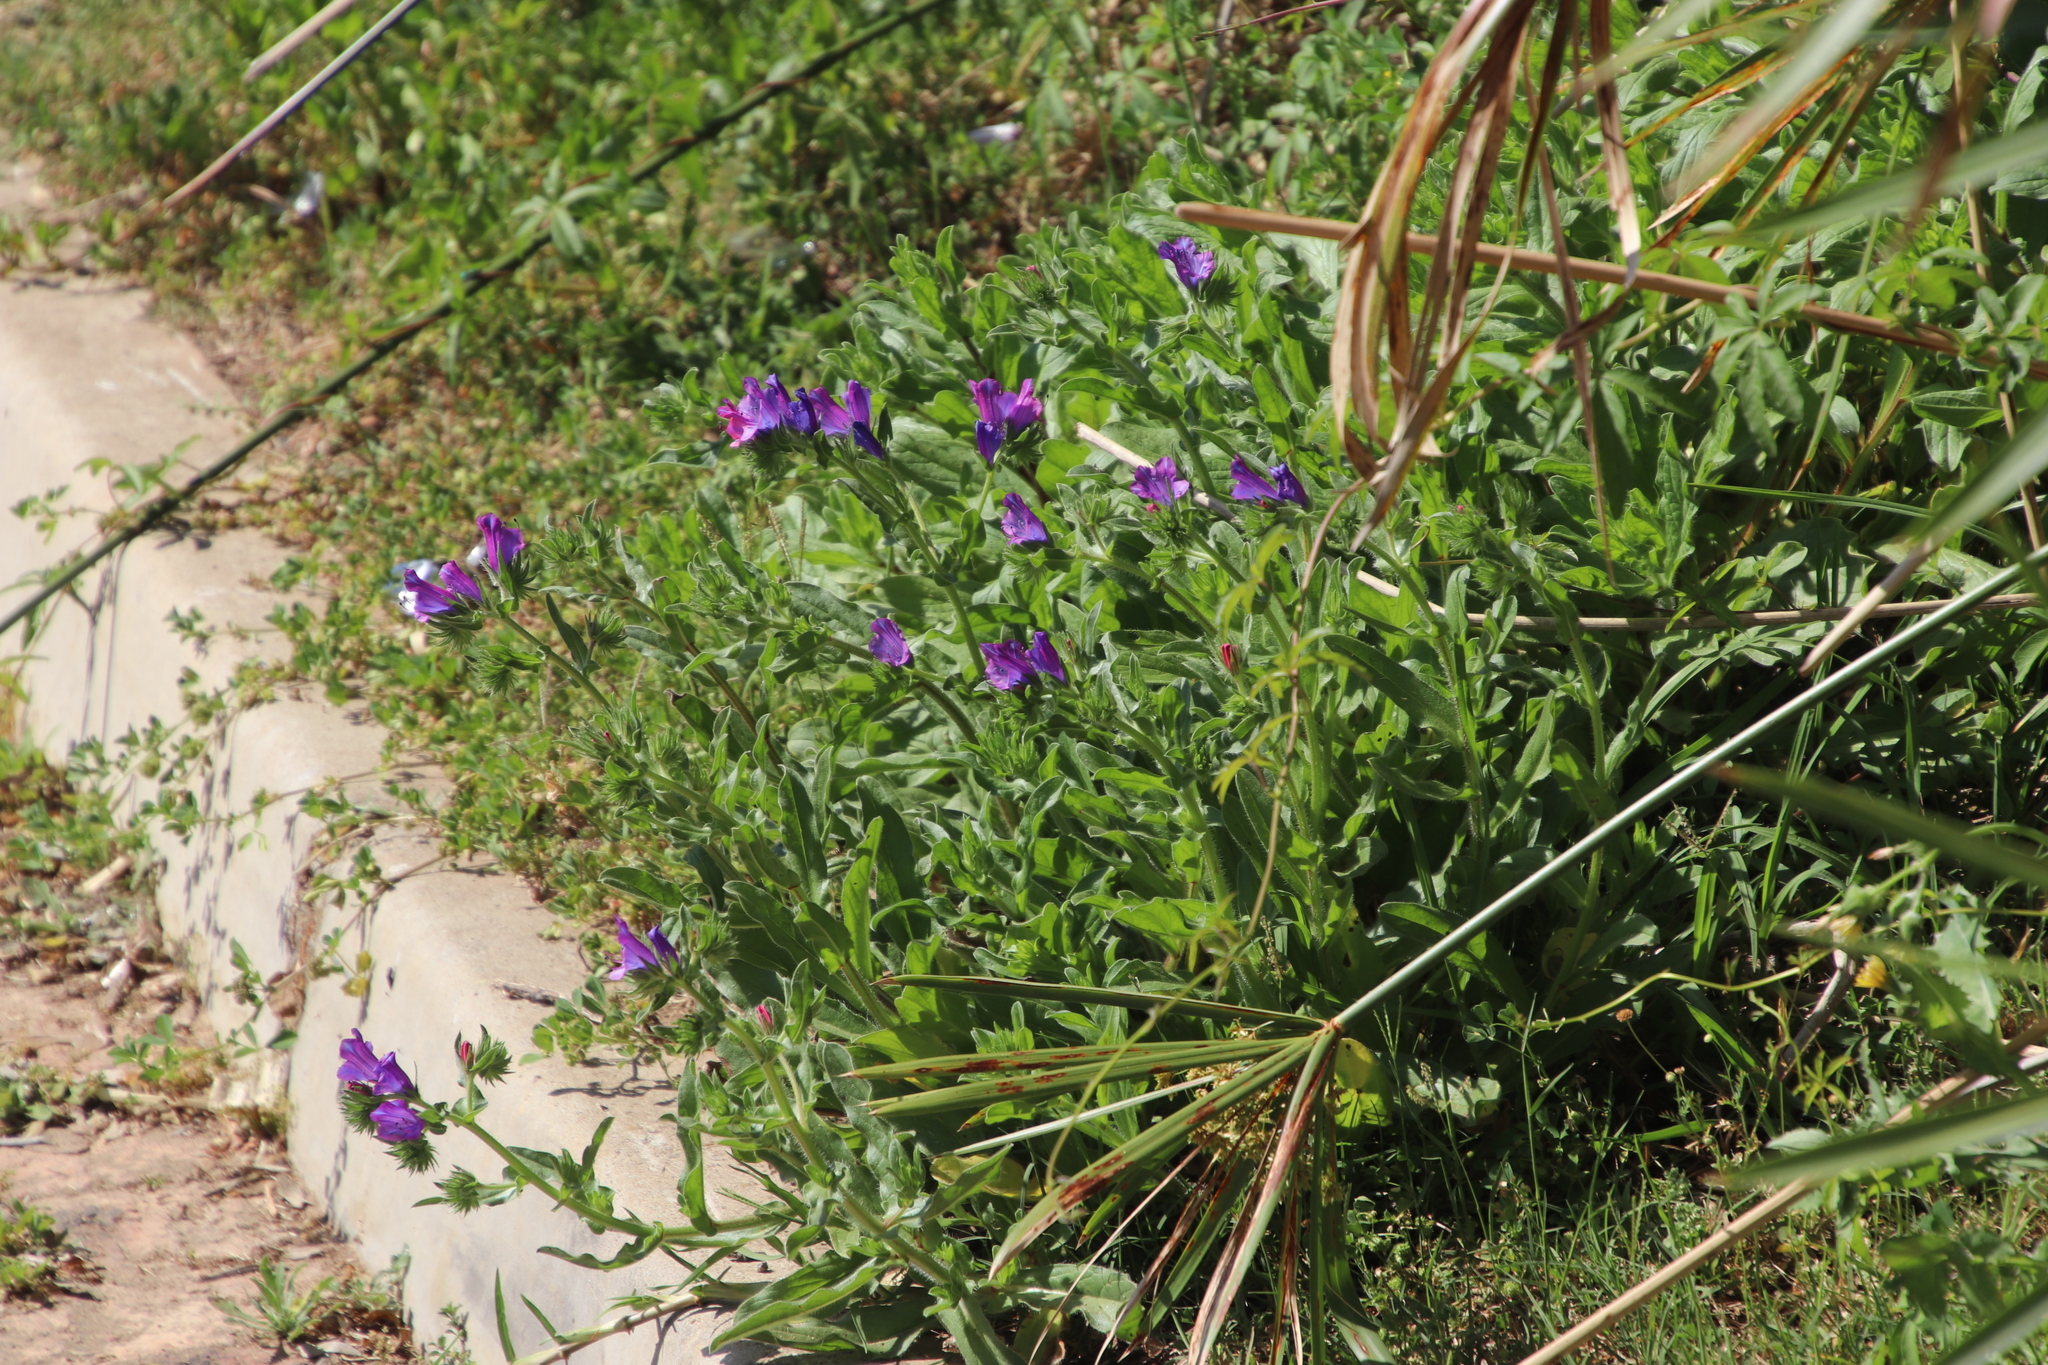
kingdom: Plantae
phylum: Tracheophyta
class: Magnoliopsida
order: Boraginales
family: Boraginaceae
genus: Echium
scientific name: Echium plantagineum
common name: Purple viper's-bugloss
